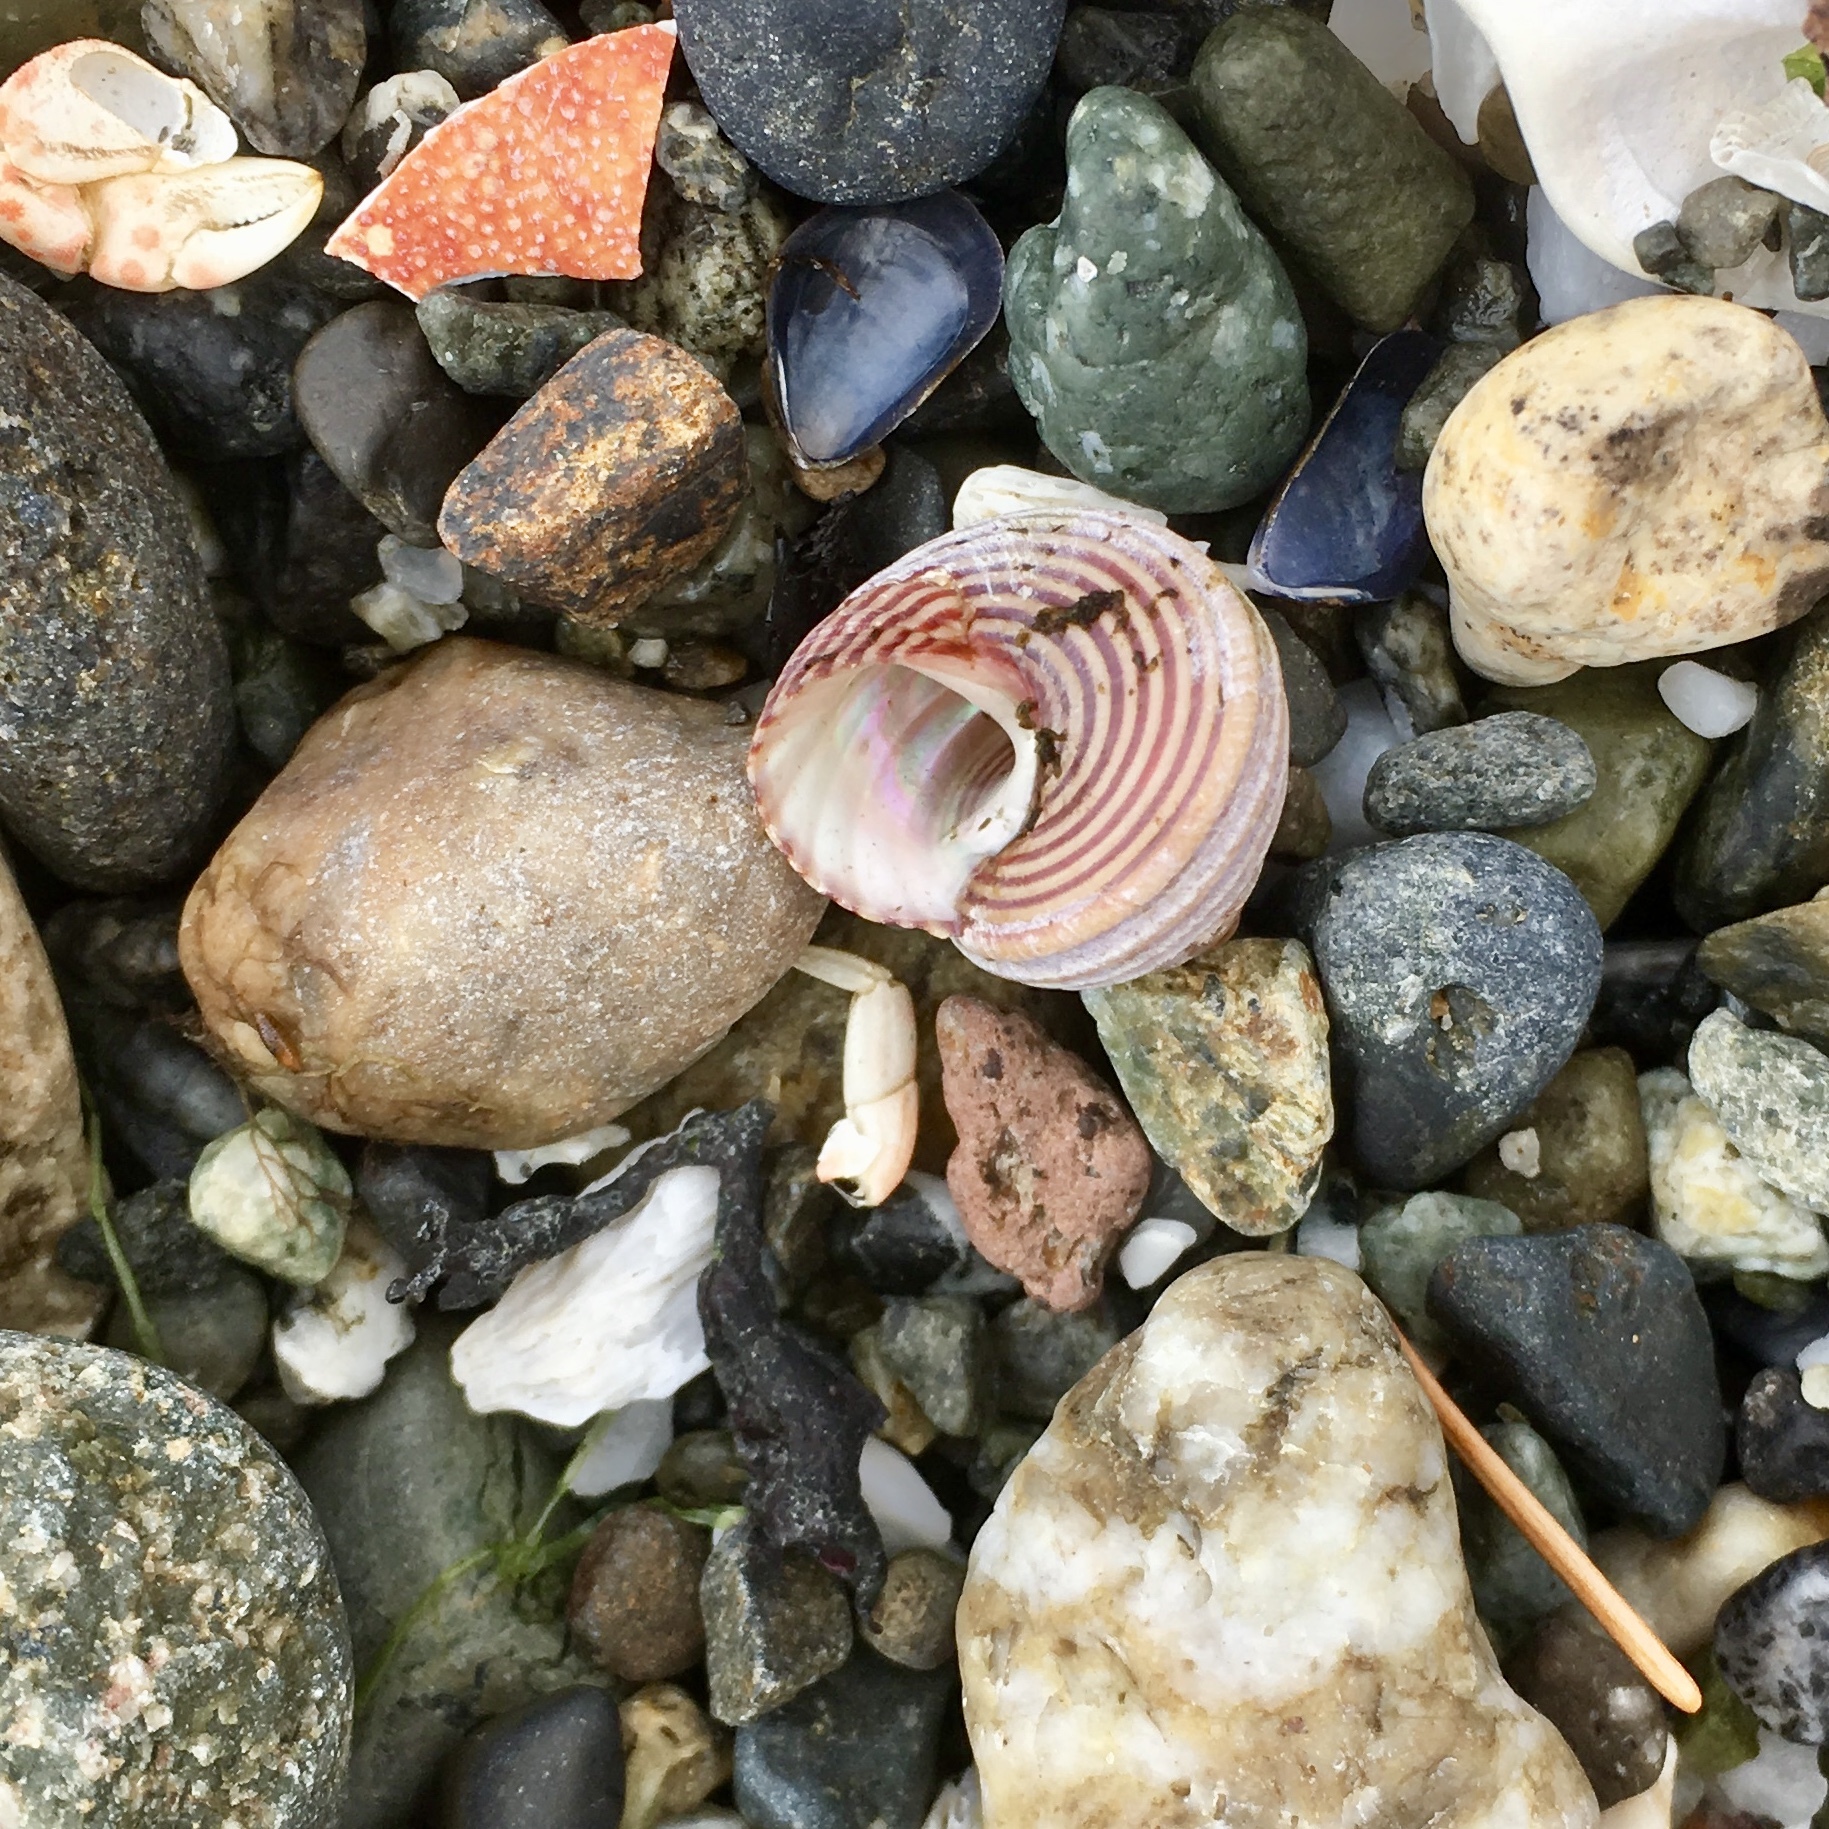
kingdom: Animalia
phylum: Mollusca
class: Gastropoda
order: Trochida
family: Calliostomatidae
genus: Calliostoma
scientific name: Calliostoma ligatum
